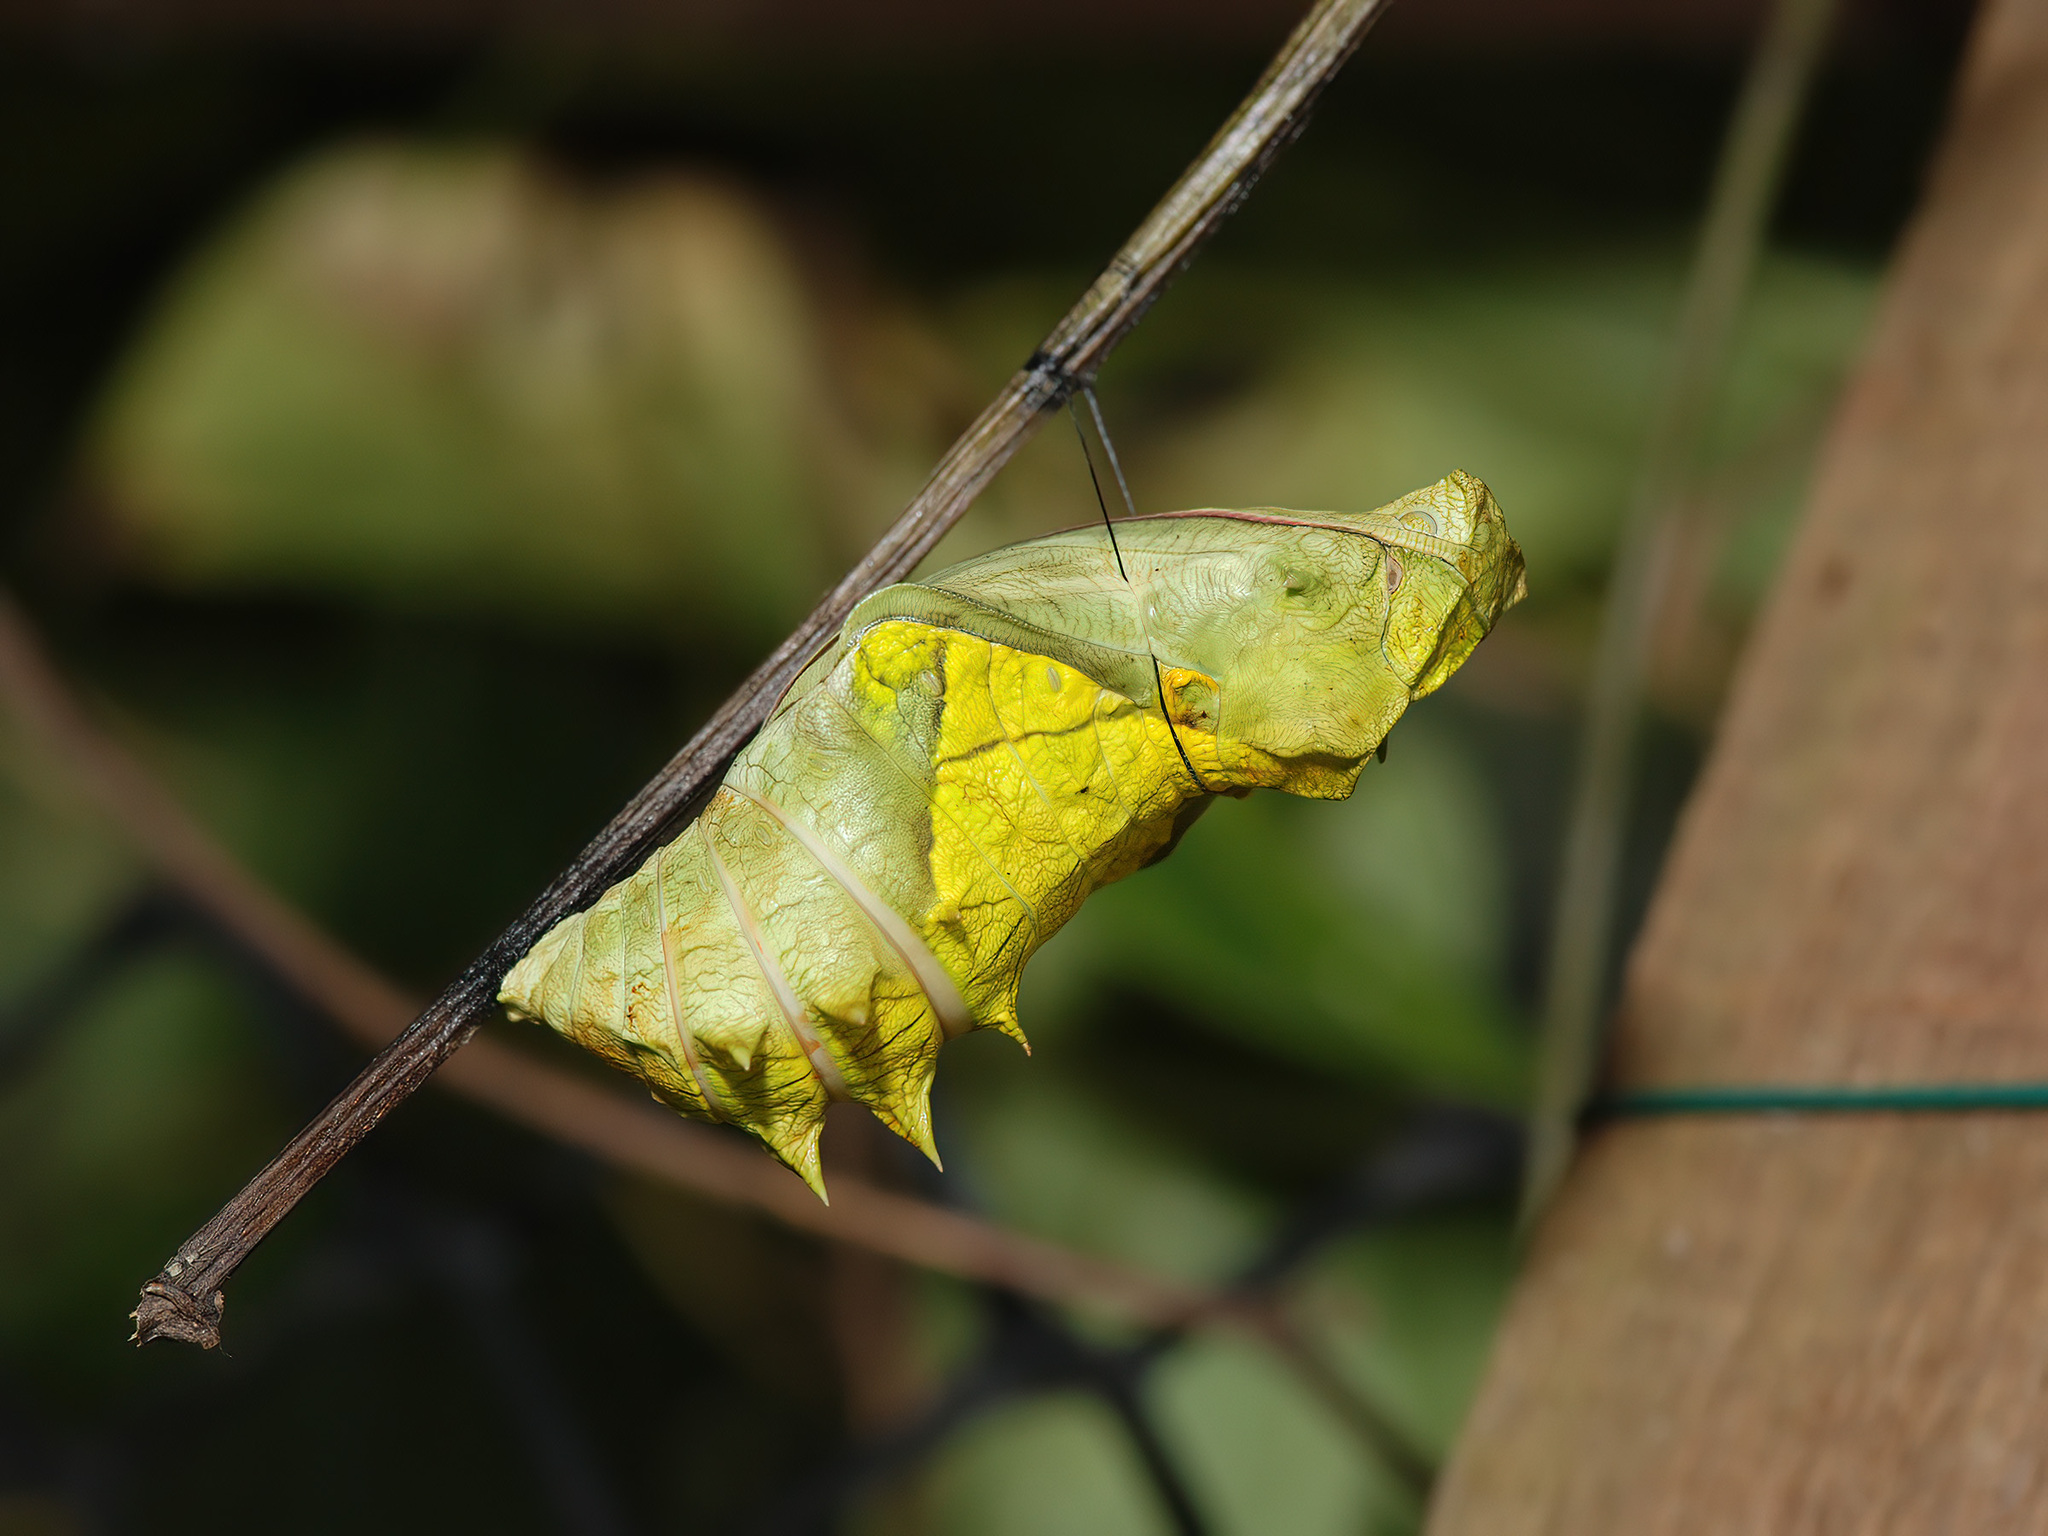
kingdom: Animalia
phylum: Arthropoda
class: Insecta
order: Lepidoptera
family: Papilionidae
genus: Troides
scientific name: Troides helena
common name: Common birdwing
